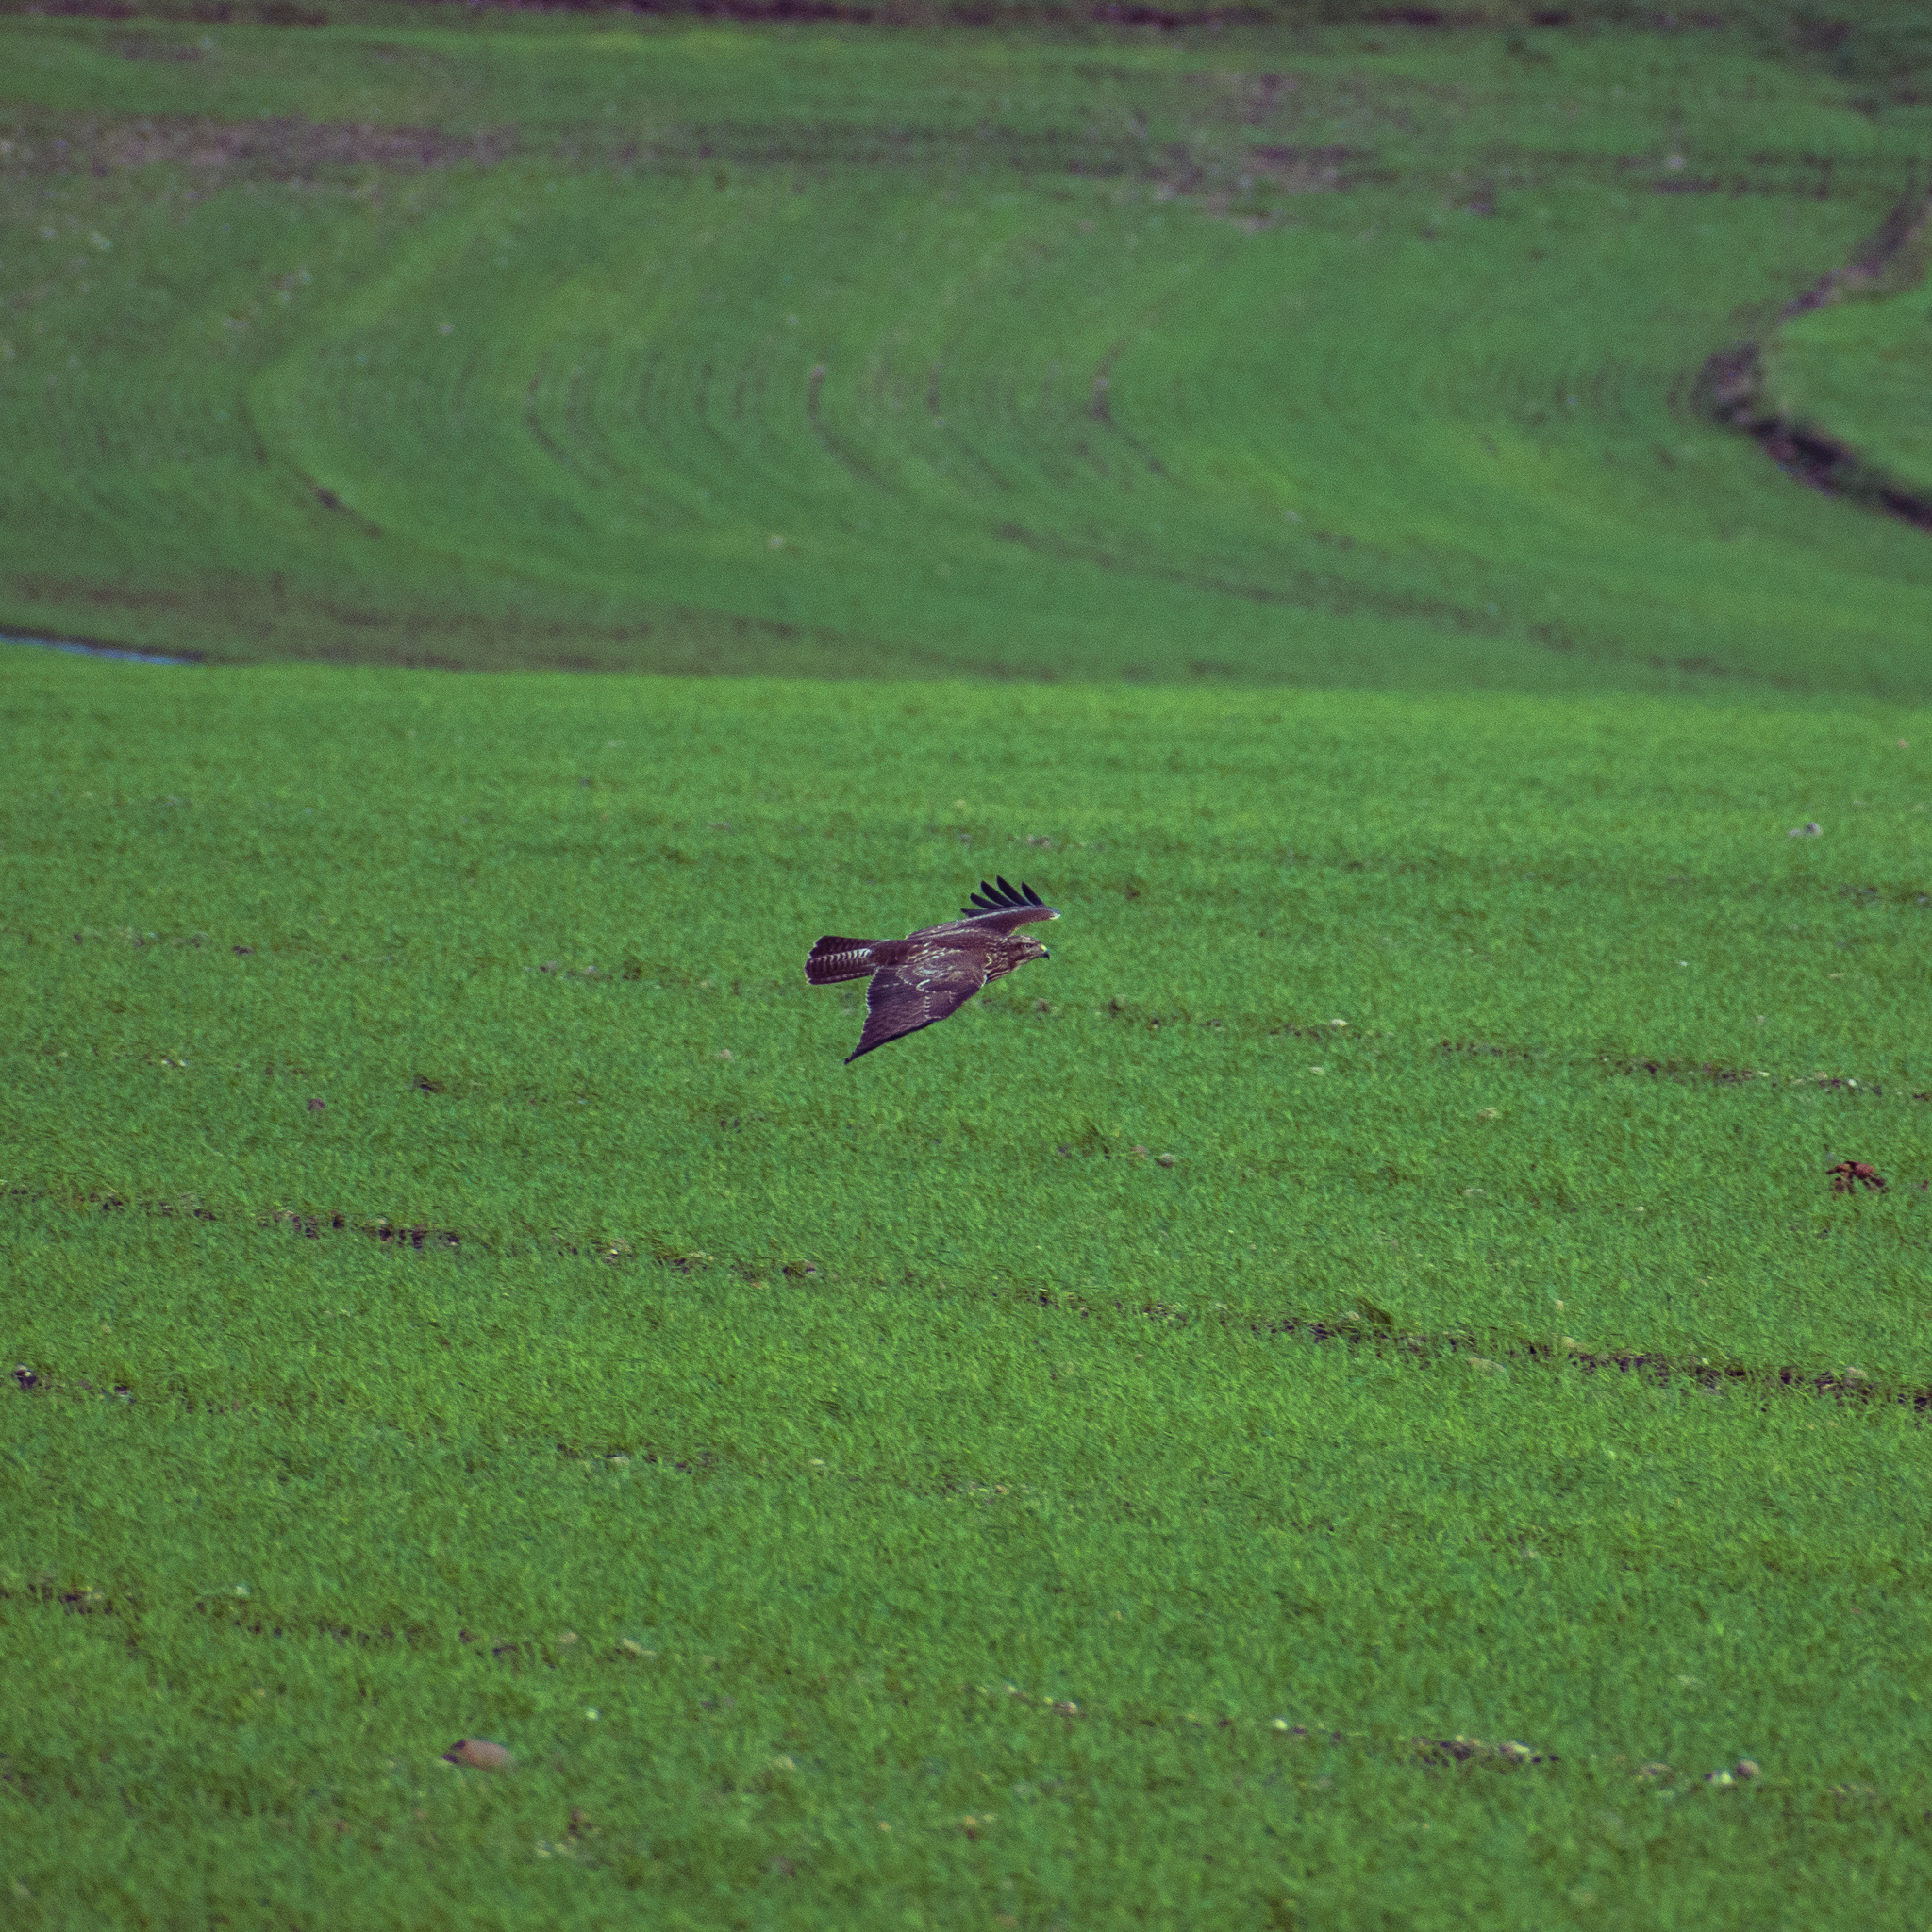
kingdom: Animalia
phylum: Chordata
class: Aves
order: Accipitriformes
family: Accipitridae
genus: Buteo
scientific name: Buteo buteo
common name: Common buzzard
